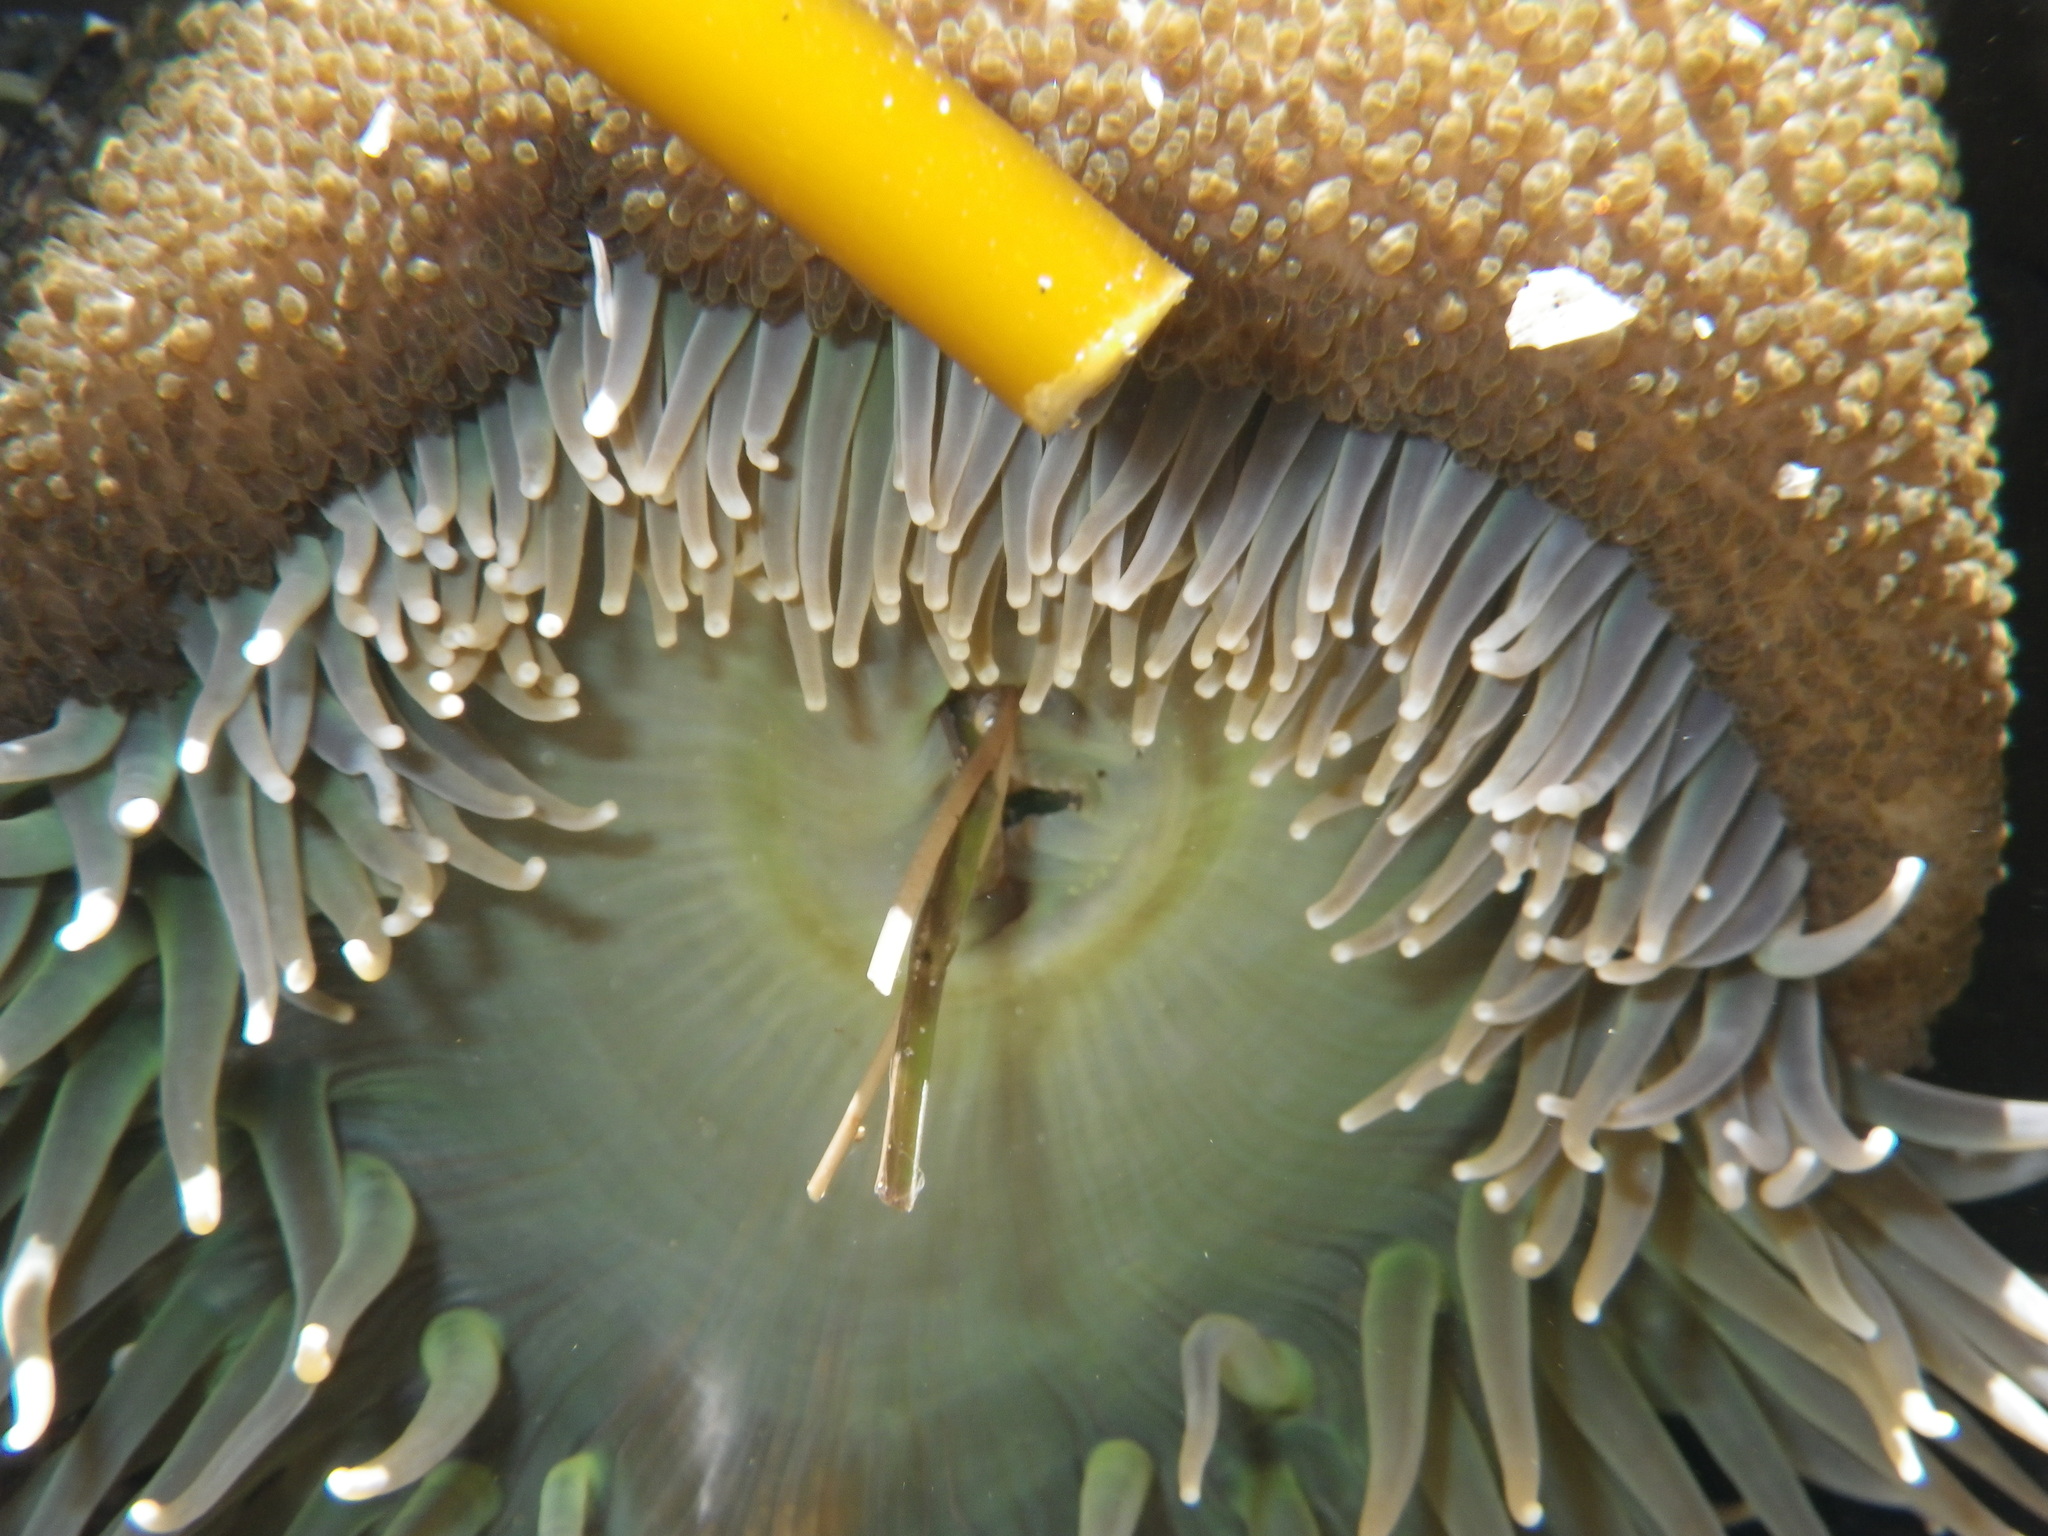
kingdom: Animalia
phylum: Cnidaria
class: Anthozoa
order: Actiniaria
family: Actiniidae
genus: Anthopleura
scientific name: Anthopleura xanthogrammica
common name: Giant green anemone
